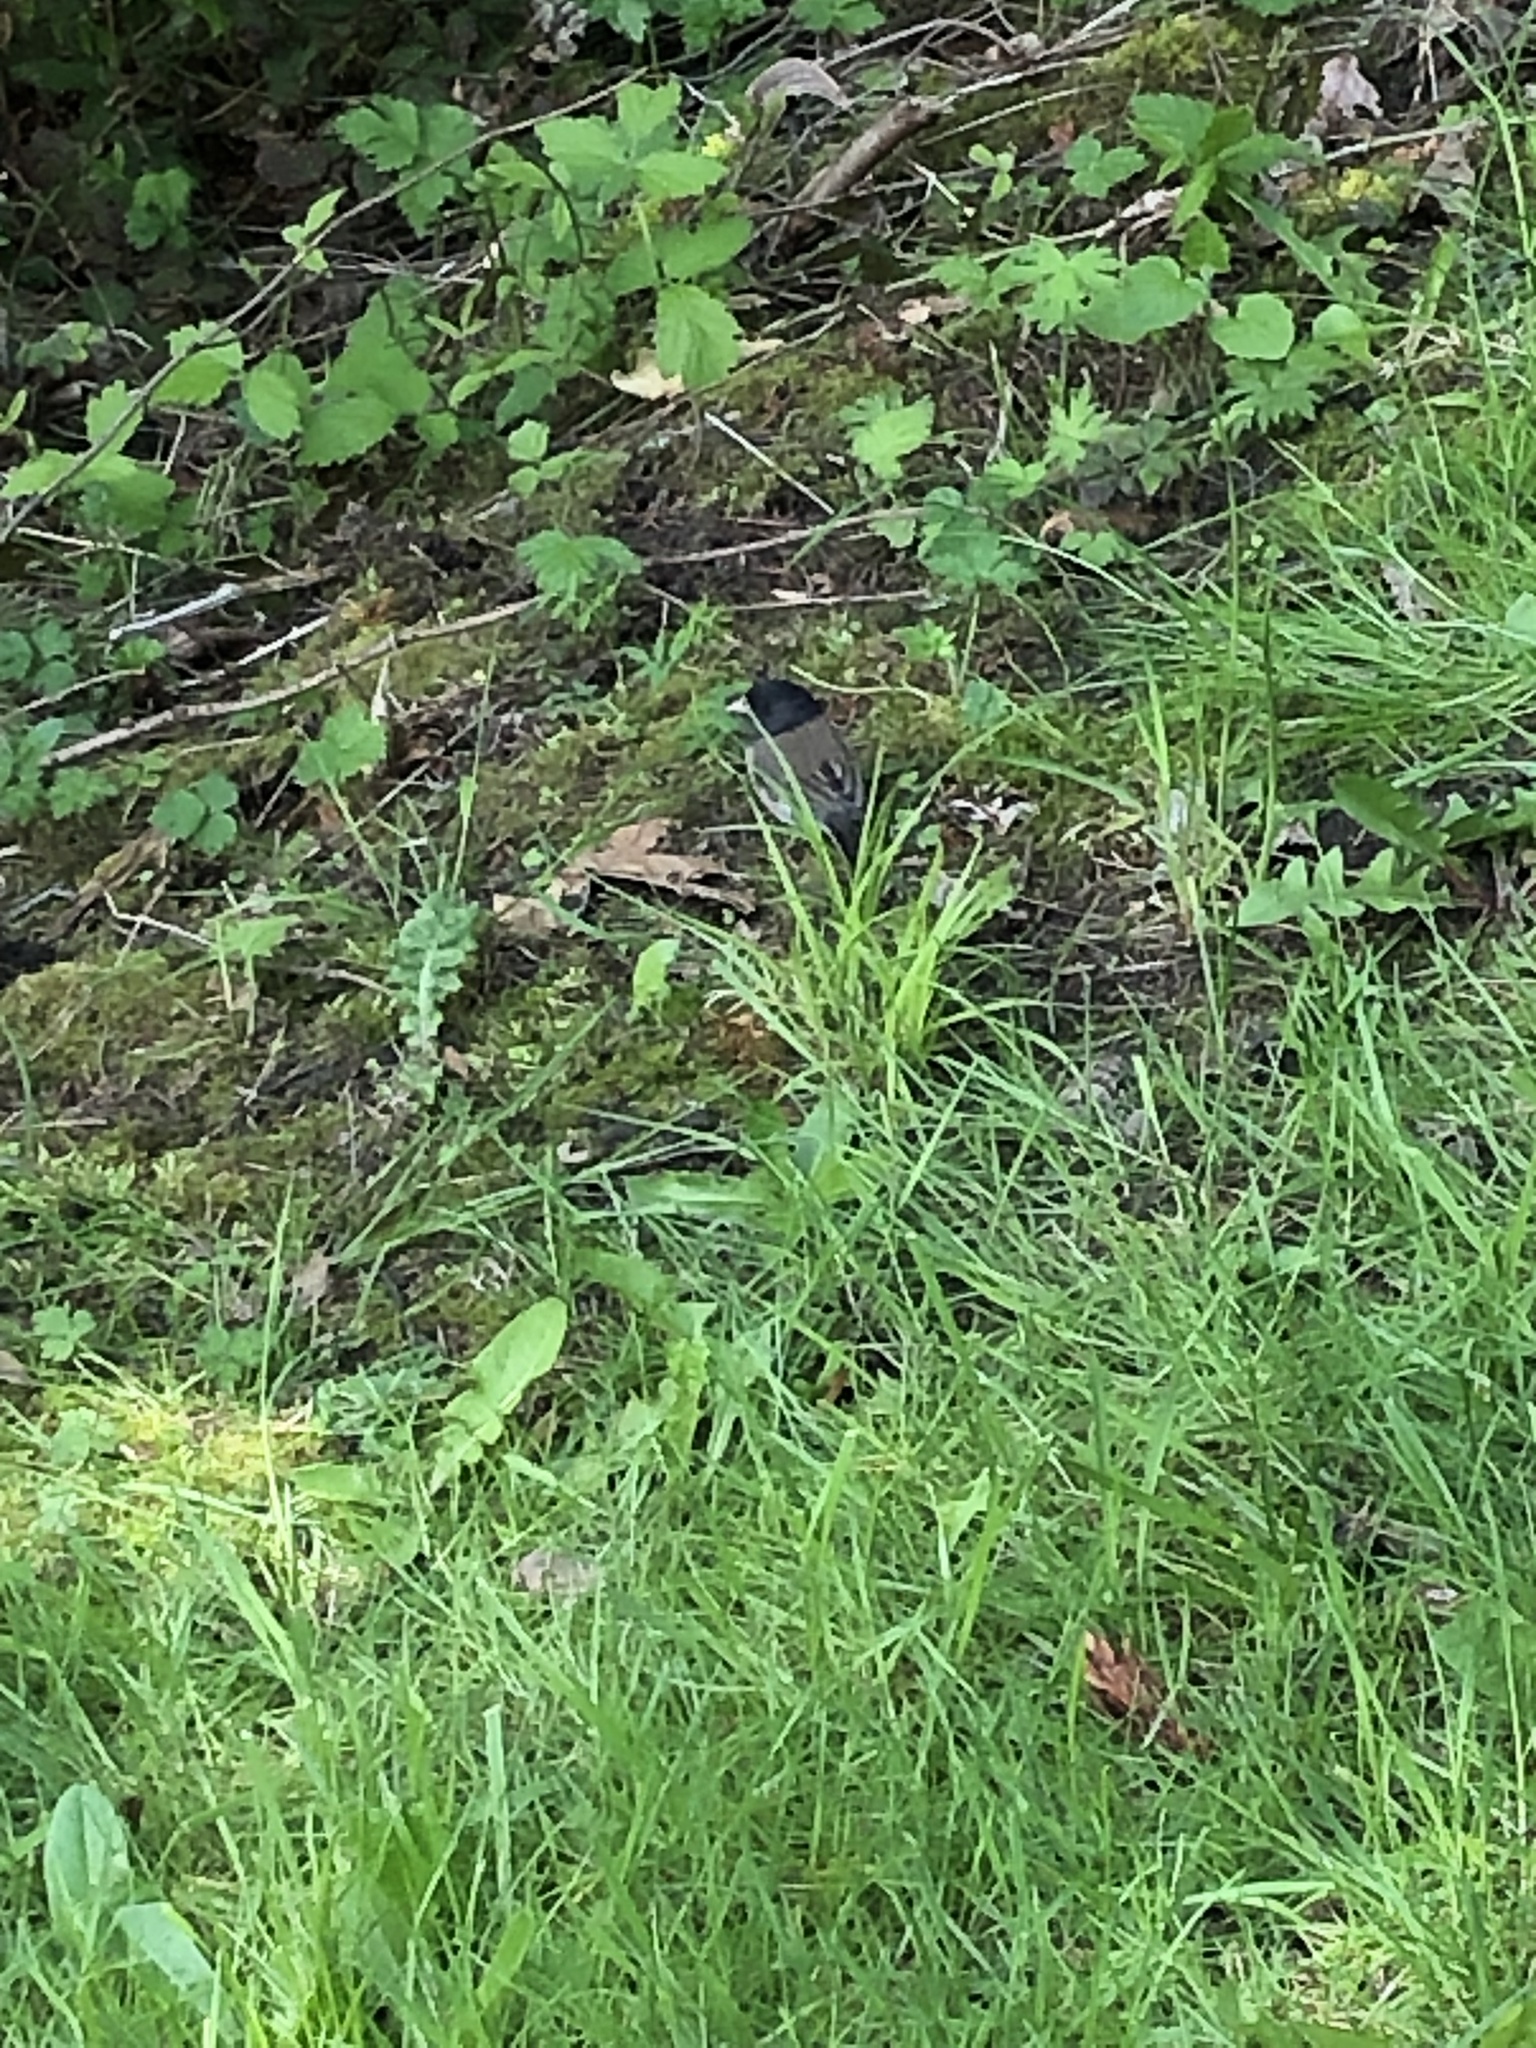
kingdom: Animalia
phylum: Chordata
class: Aves
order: Passeriformes
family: Passerellidae
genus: Junco
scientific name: Junco hyemalis
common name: Dark-eyed junco
